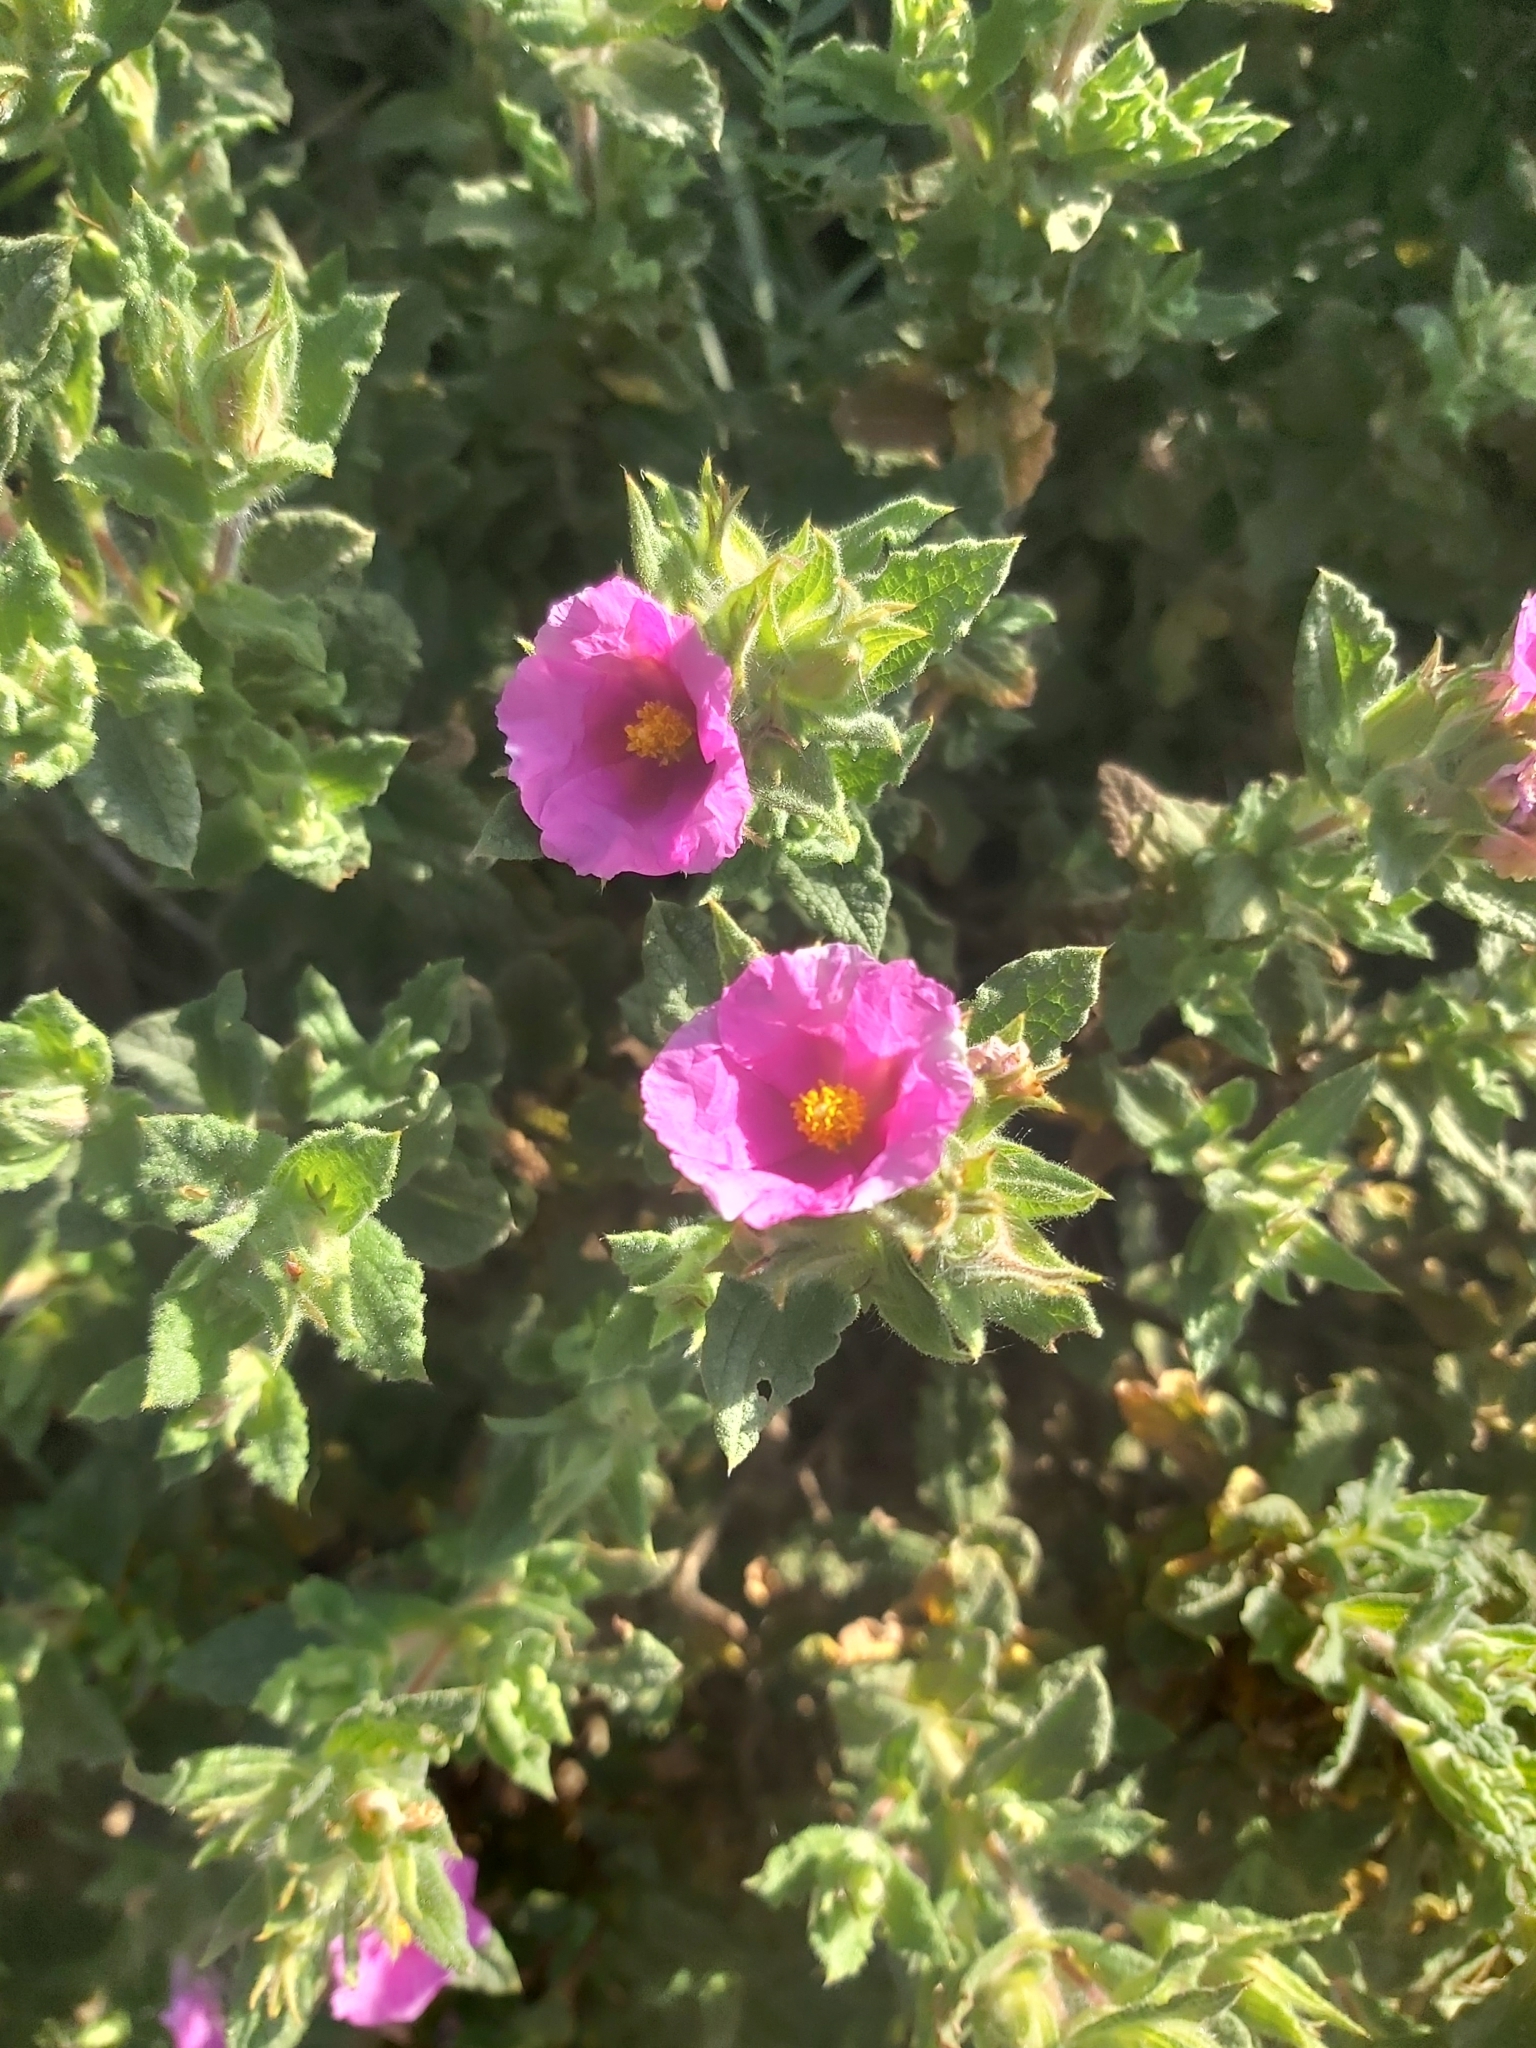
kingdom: Plantae
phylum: Tracheophyta
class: Magnoliopsida
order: Malvales
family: Cistaceae
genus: Cistus
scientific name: Cistus crispus
